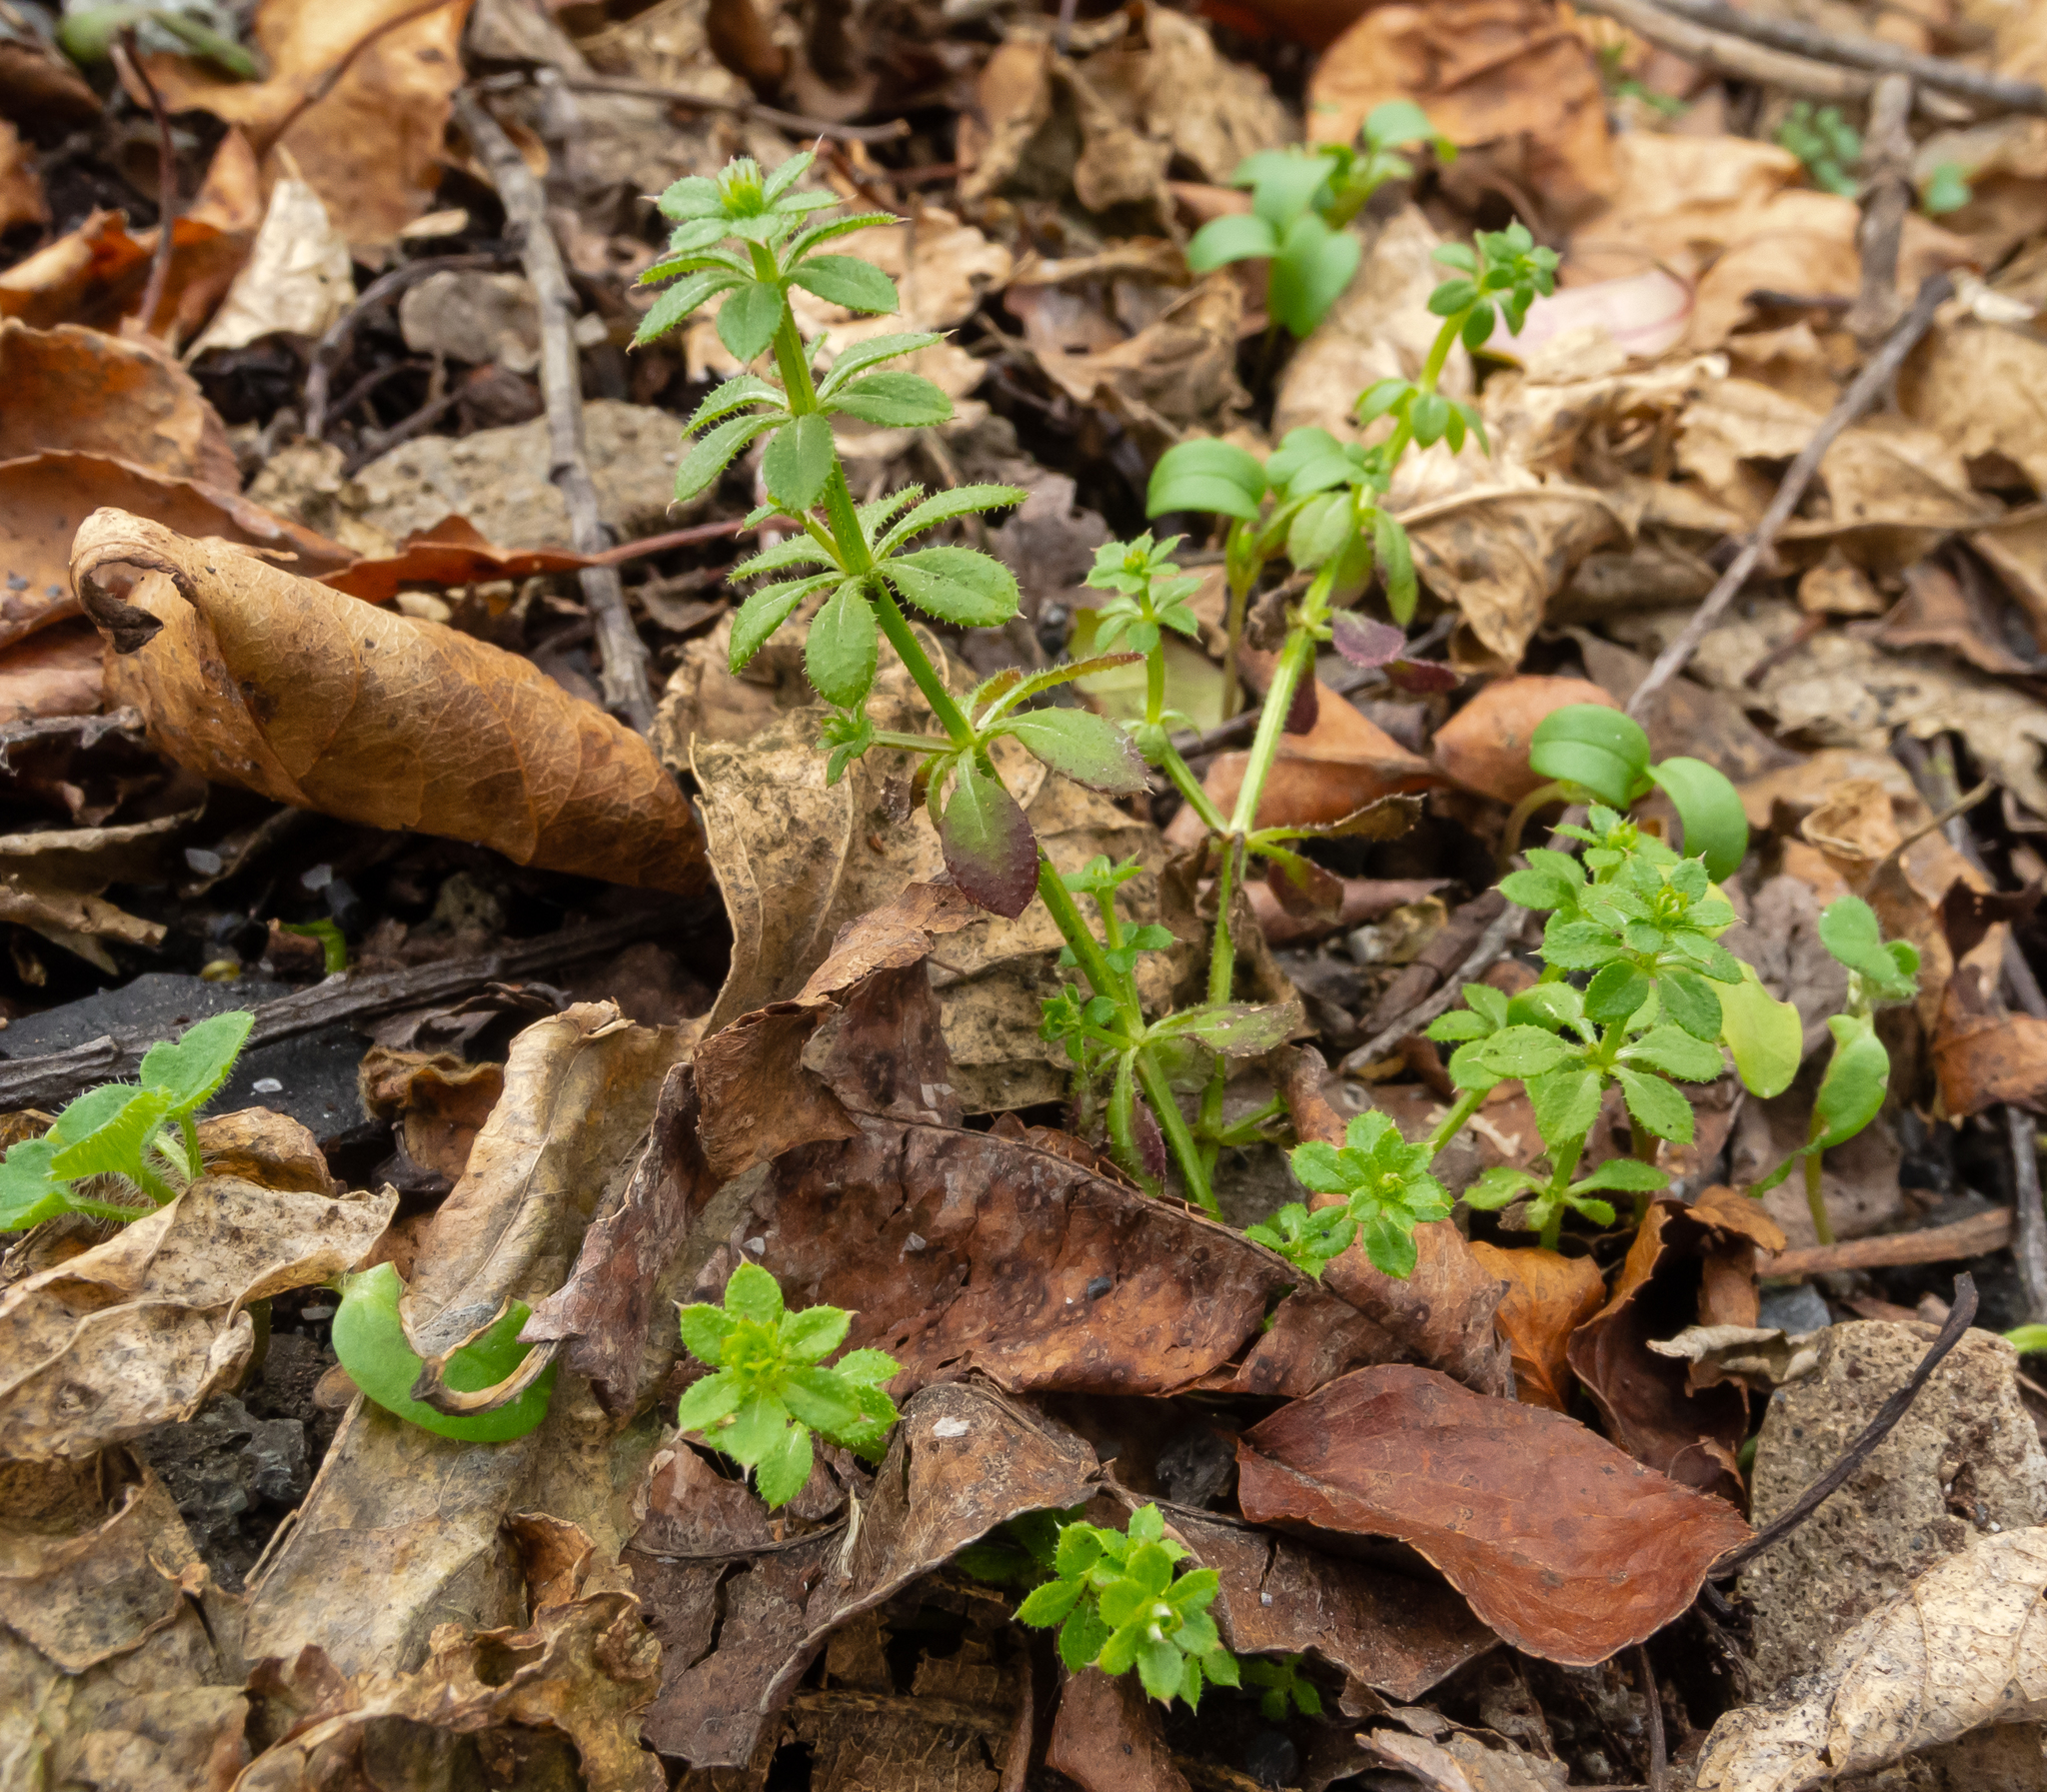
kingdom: Plantae
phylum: Tracheophyta
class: Magnoliopsida
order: Gentianales
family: Rubiaceae
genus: Galium
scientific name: Galium aparine
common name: Cleavers
